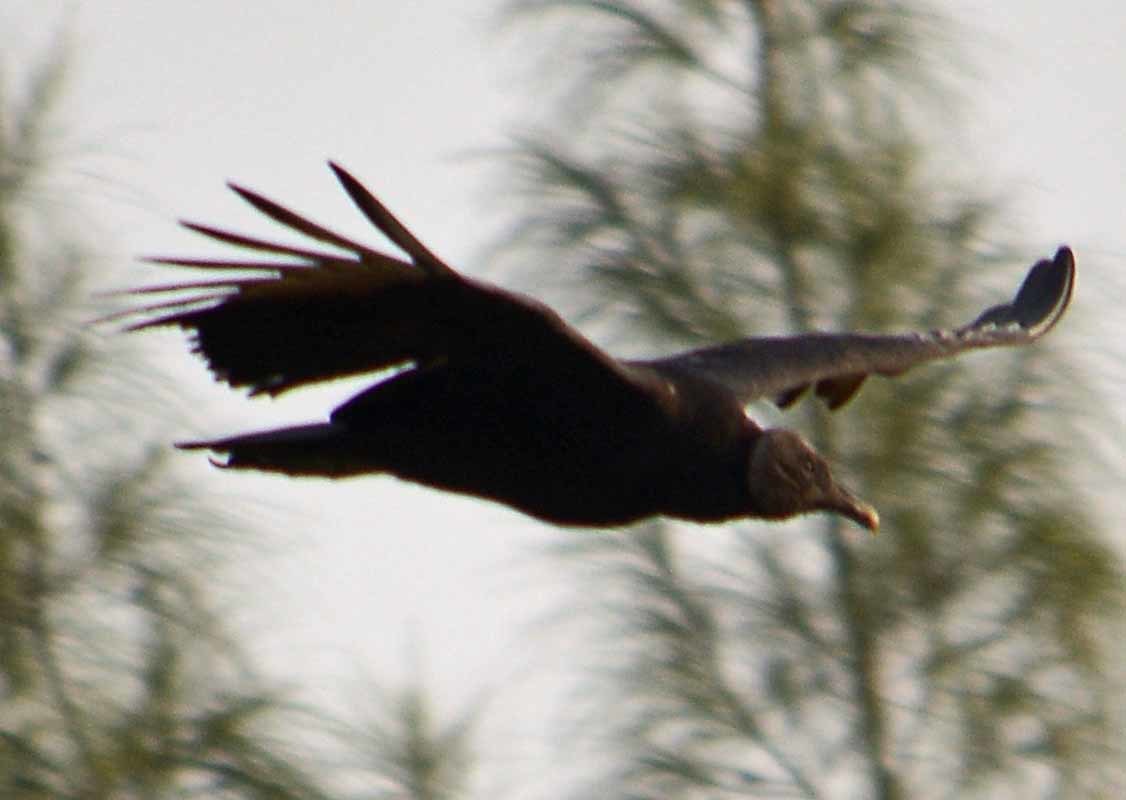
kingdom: Animalia
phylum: Chordata
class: Aves
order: Accipitriformes
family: Cathartidae
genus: Coragyps
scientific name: Coragyps atratus
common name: Black vulture
